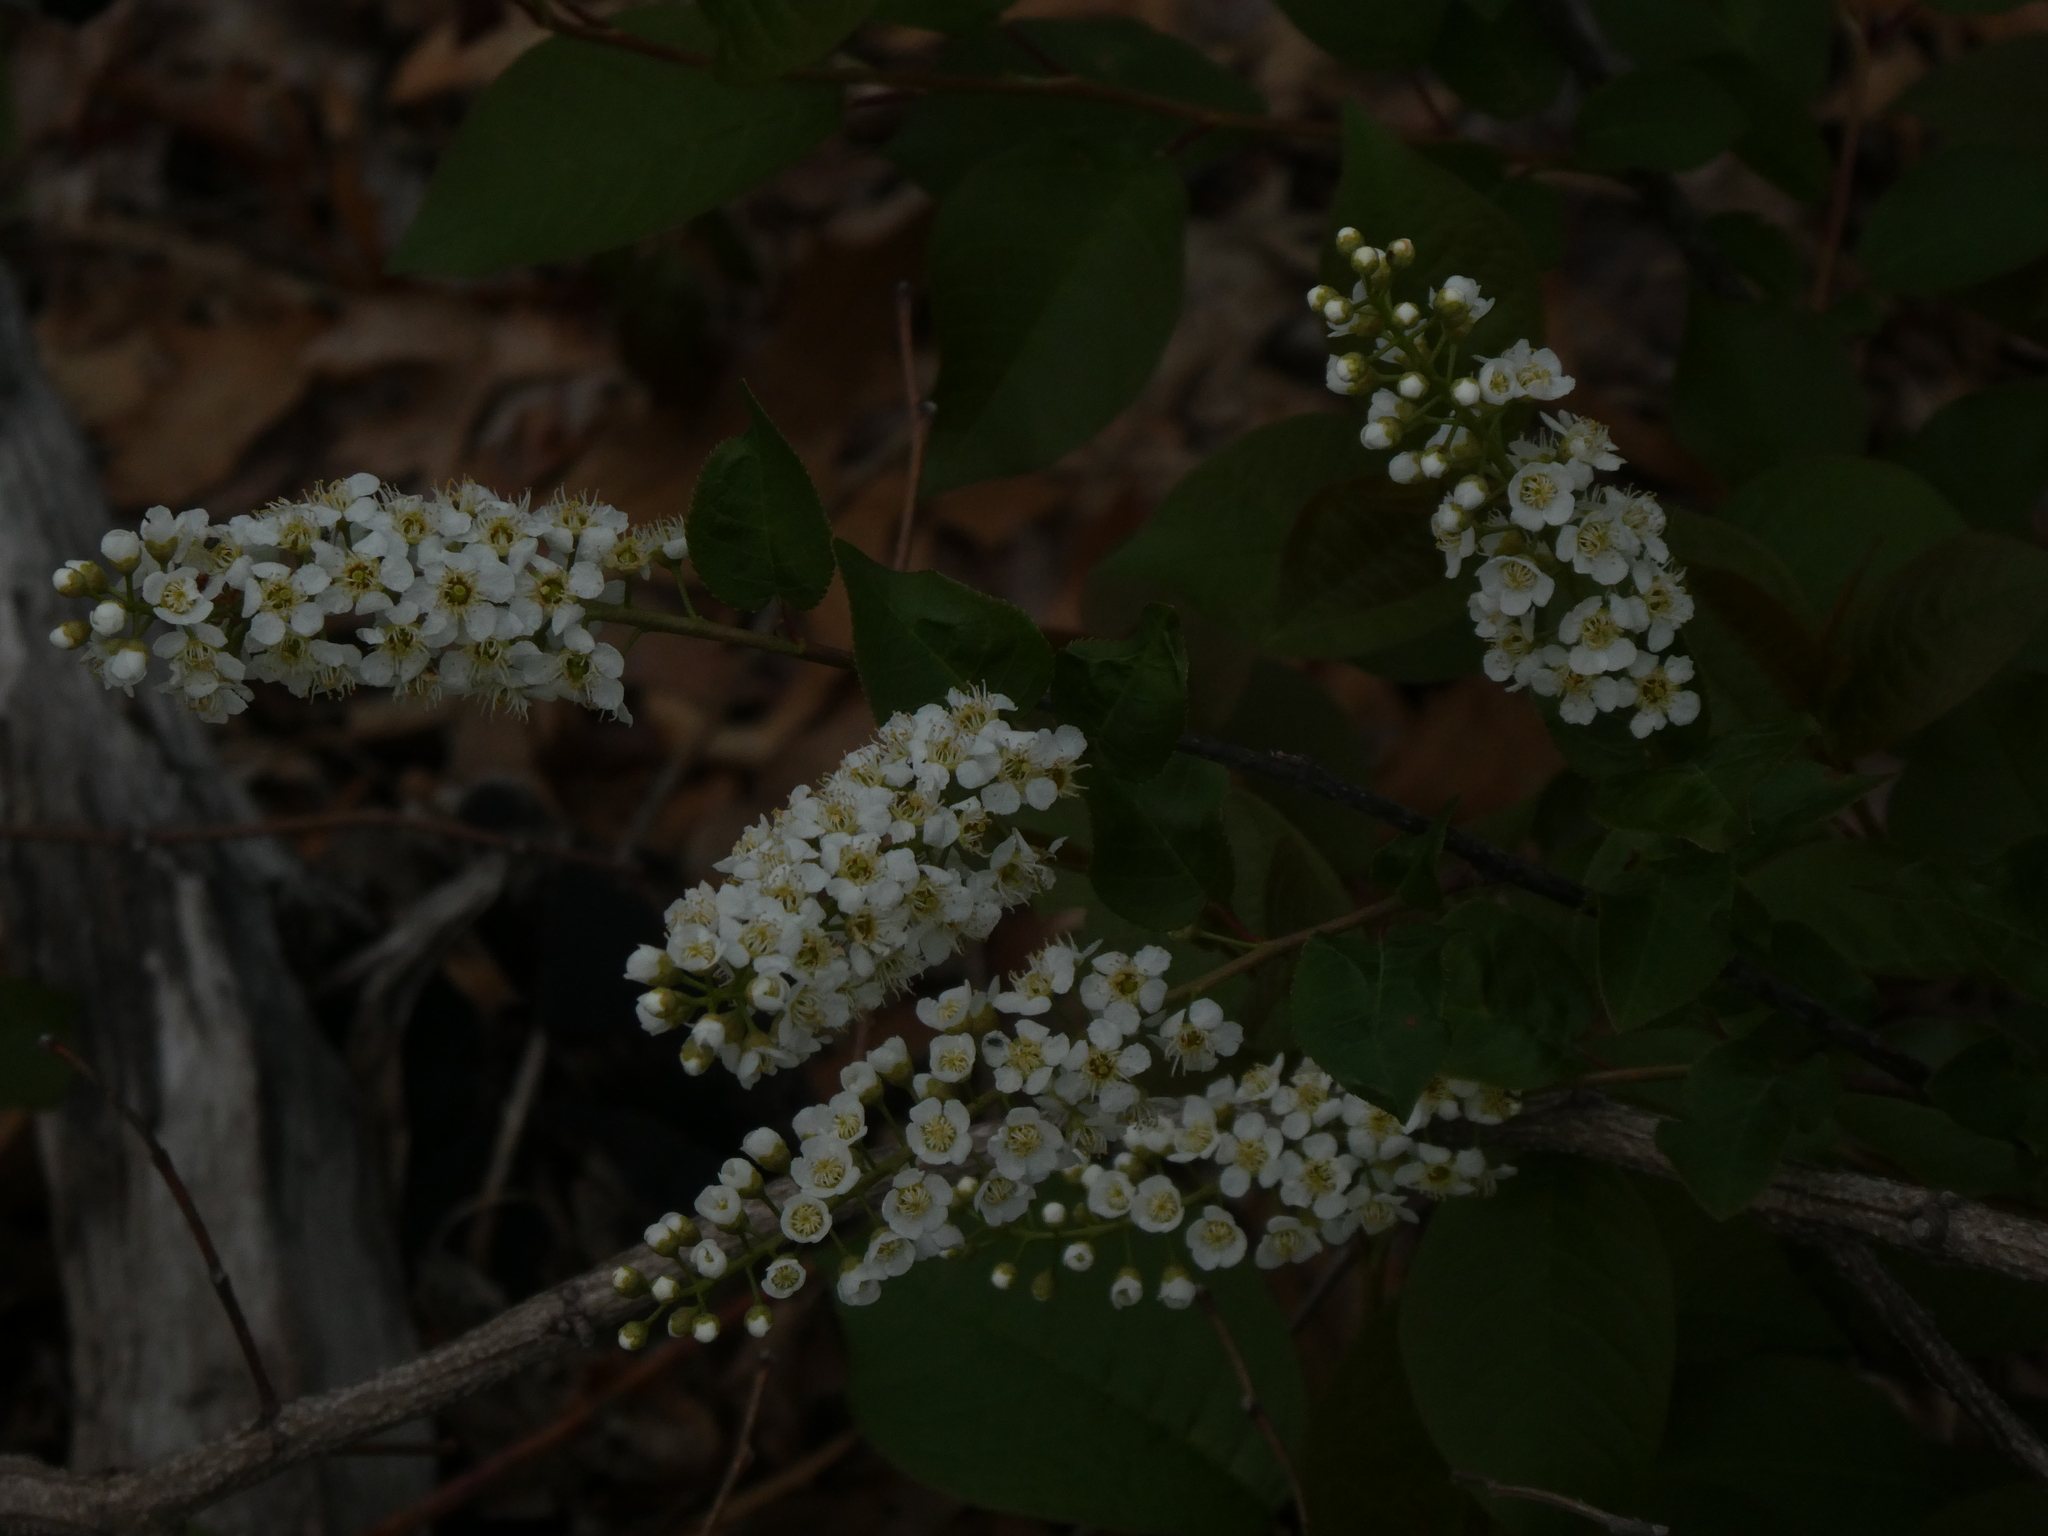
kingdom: Plantae
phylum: Tracheophyta
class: Magnoliopsida
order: Rosales
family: Rosaceae
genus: Prunus
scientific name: Prunus virginiana
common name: Chokecherry
